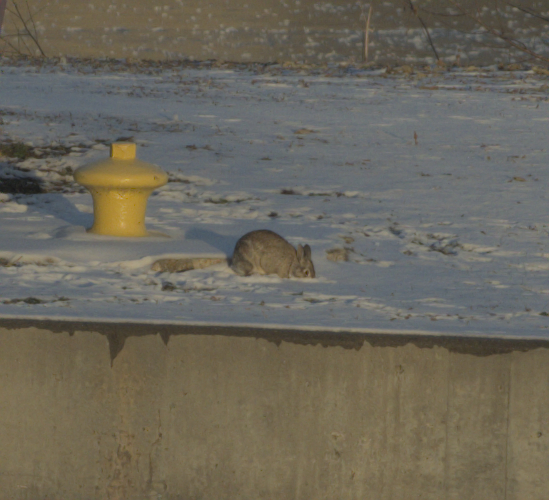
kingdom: Animalia
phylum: Chordata
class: Mammalia
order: Lagomorpha
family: Leporidae
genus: Sylvilagus
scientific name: Sylvilagus floridanus
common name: Eastern cottontail
